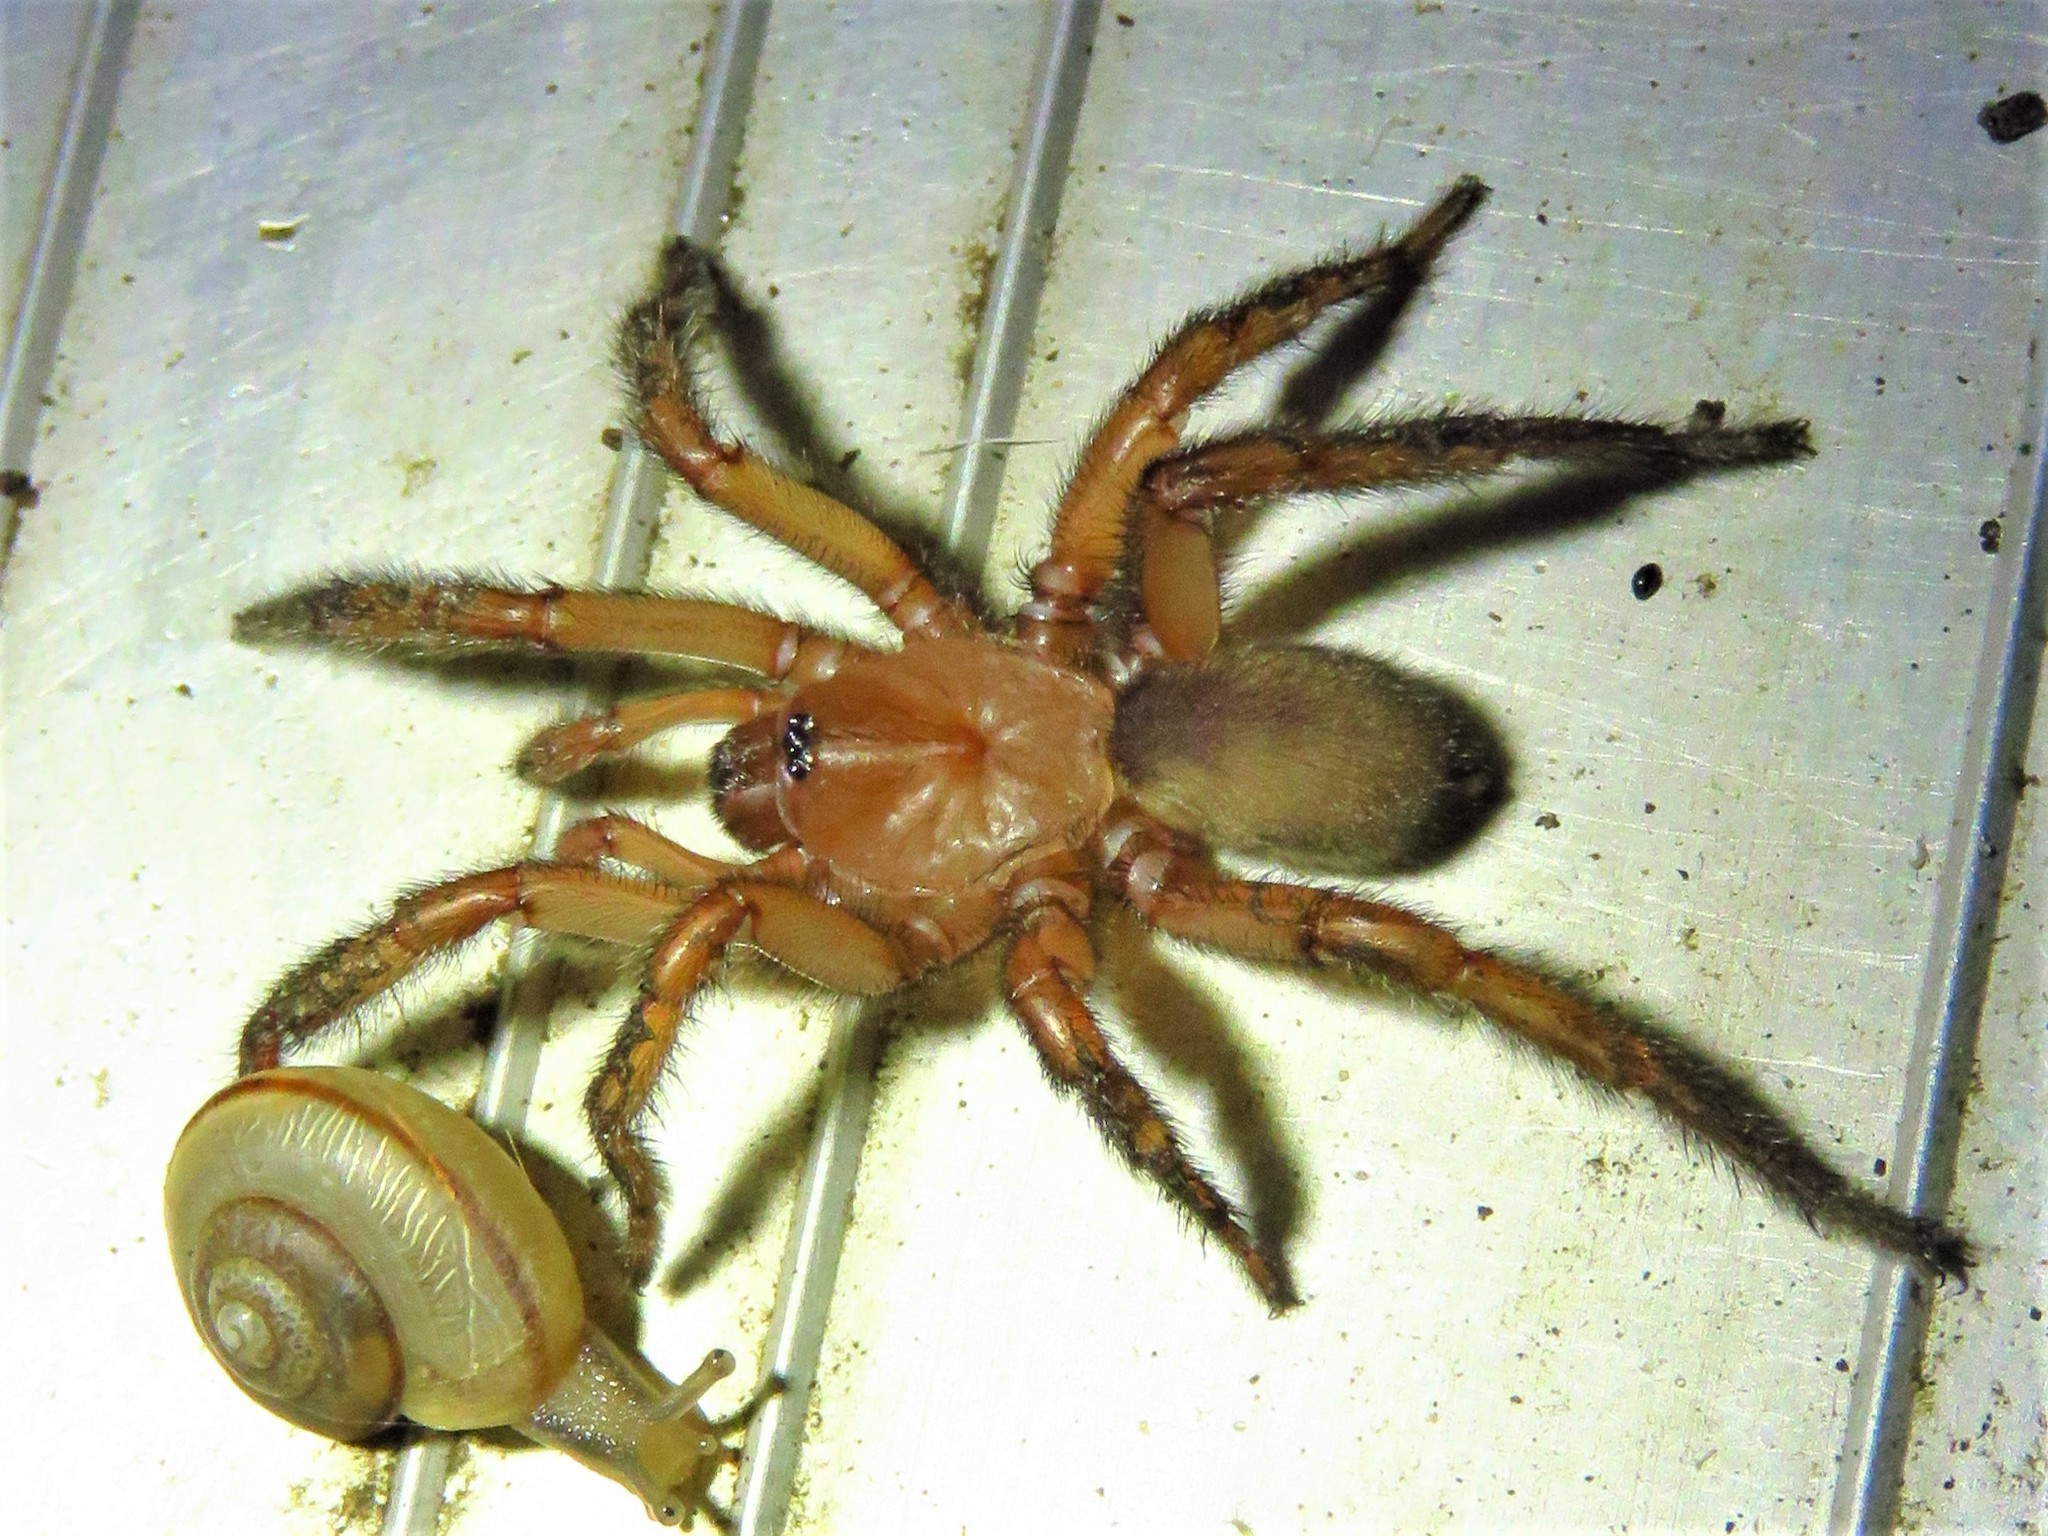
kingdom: Animalia
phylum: Arthropoda
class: Arachnida
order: Araneae
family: Euctenizidae
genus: Myrmekiaphila
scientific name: Myrmekiaphila comstocki
